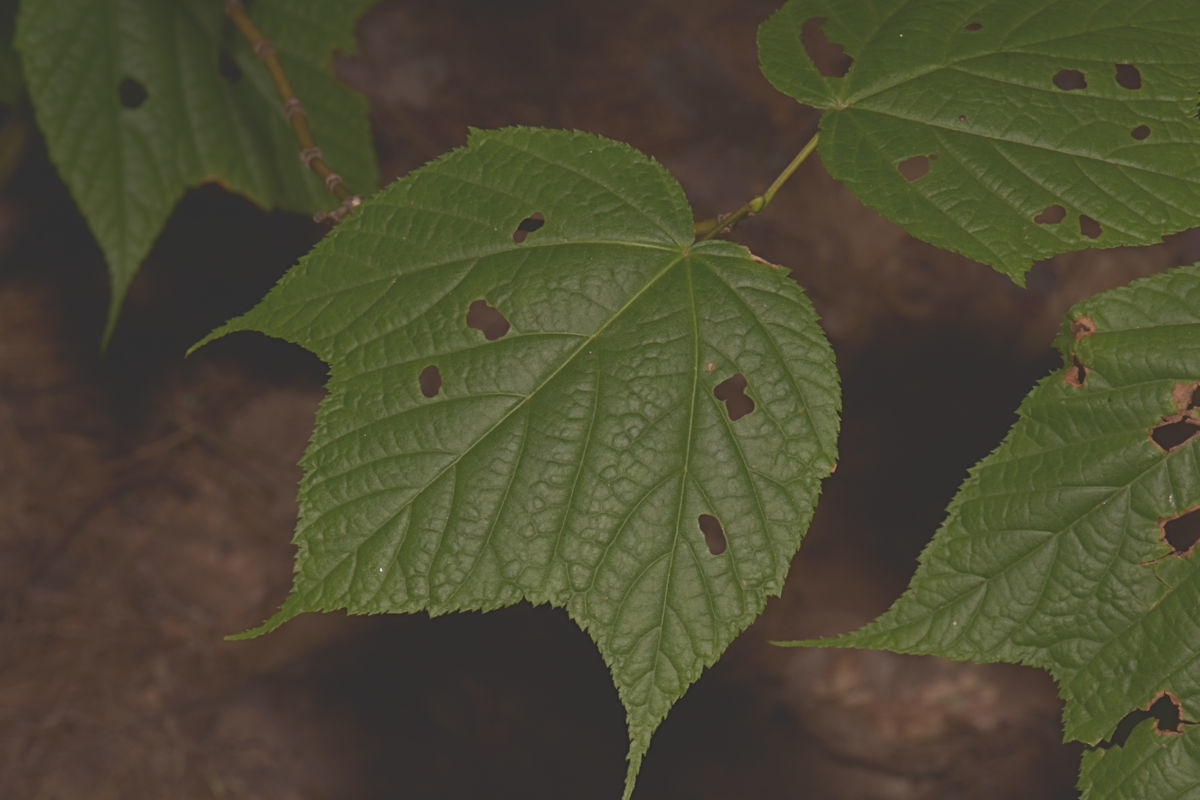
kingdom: Plantae
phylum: Tracheophyta
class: Magnoliopsida
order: Sapindales
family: Sapindaceae
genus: Acer
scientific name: Acer pensylvanicum
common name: Moosewood
